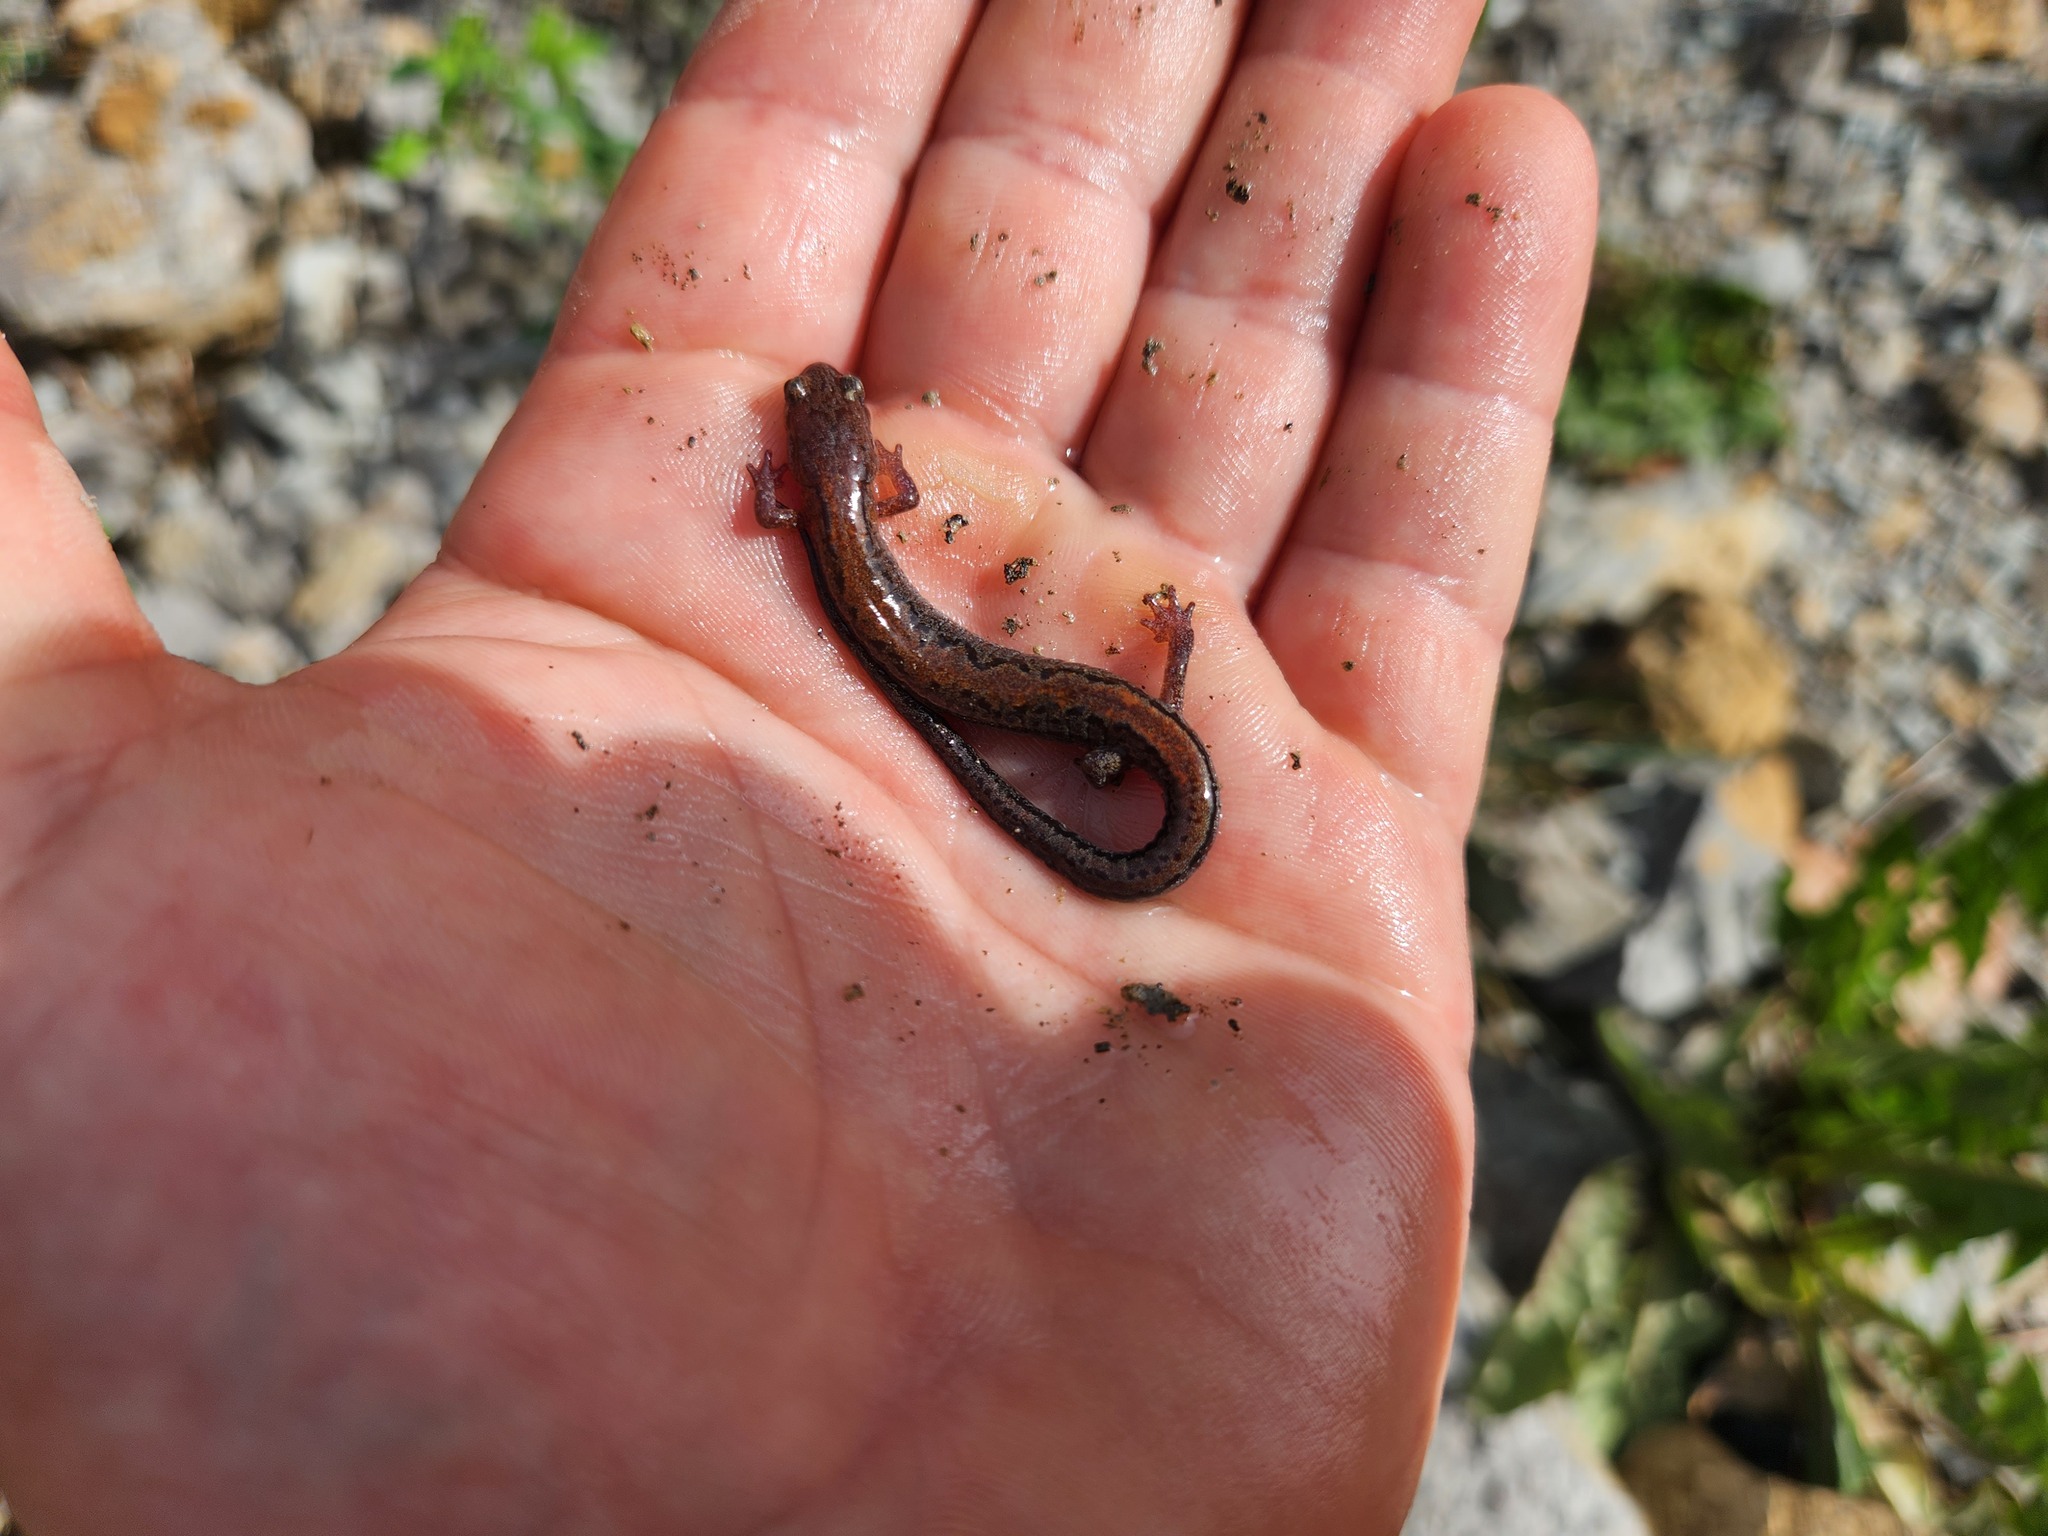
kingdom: Animalia
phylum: Chordata
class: Amphibia
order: Caudata
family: Plethodontidae
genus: Plethodon
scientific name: Plethodon dorsalis
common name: Northern zigzag salamander
